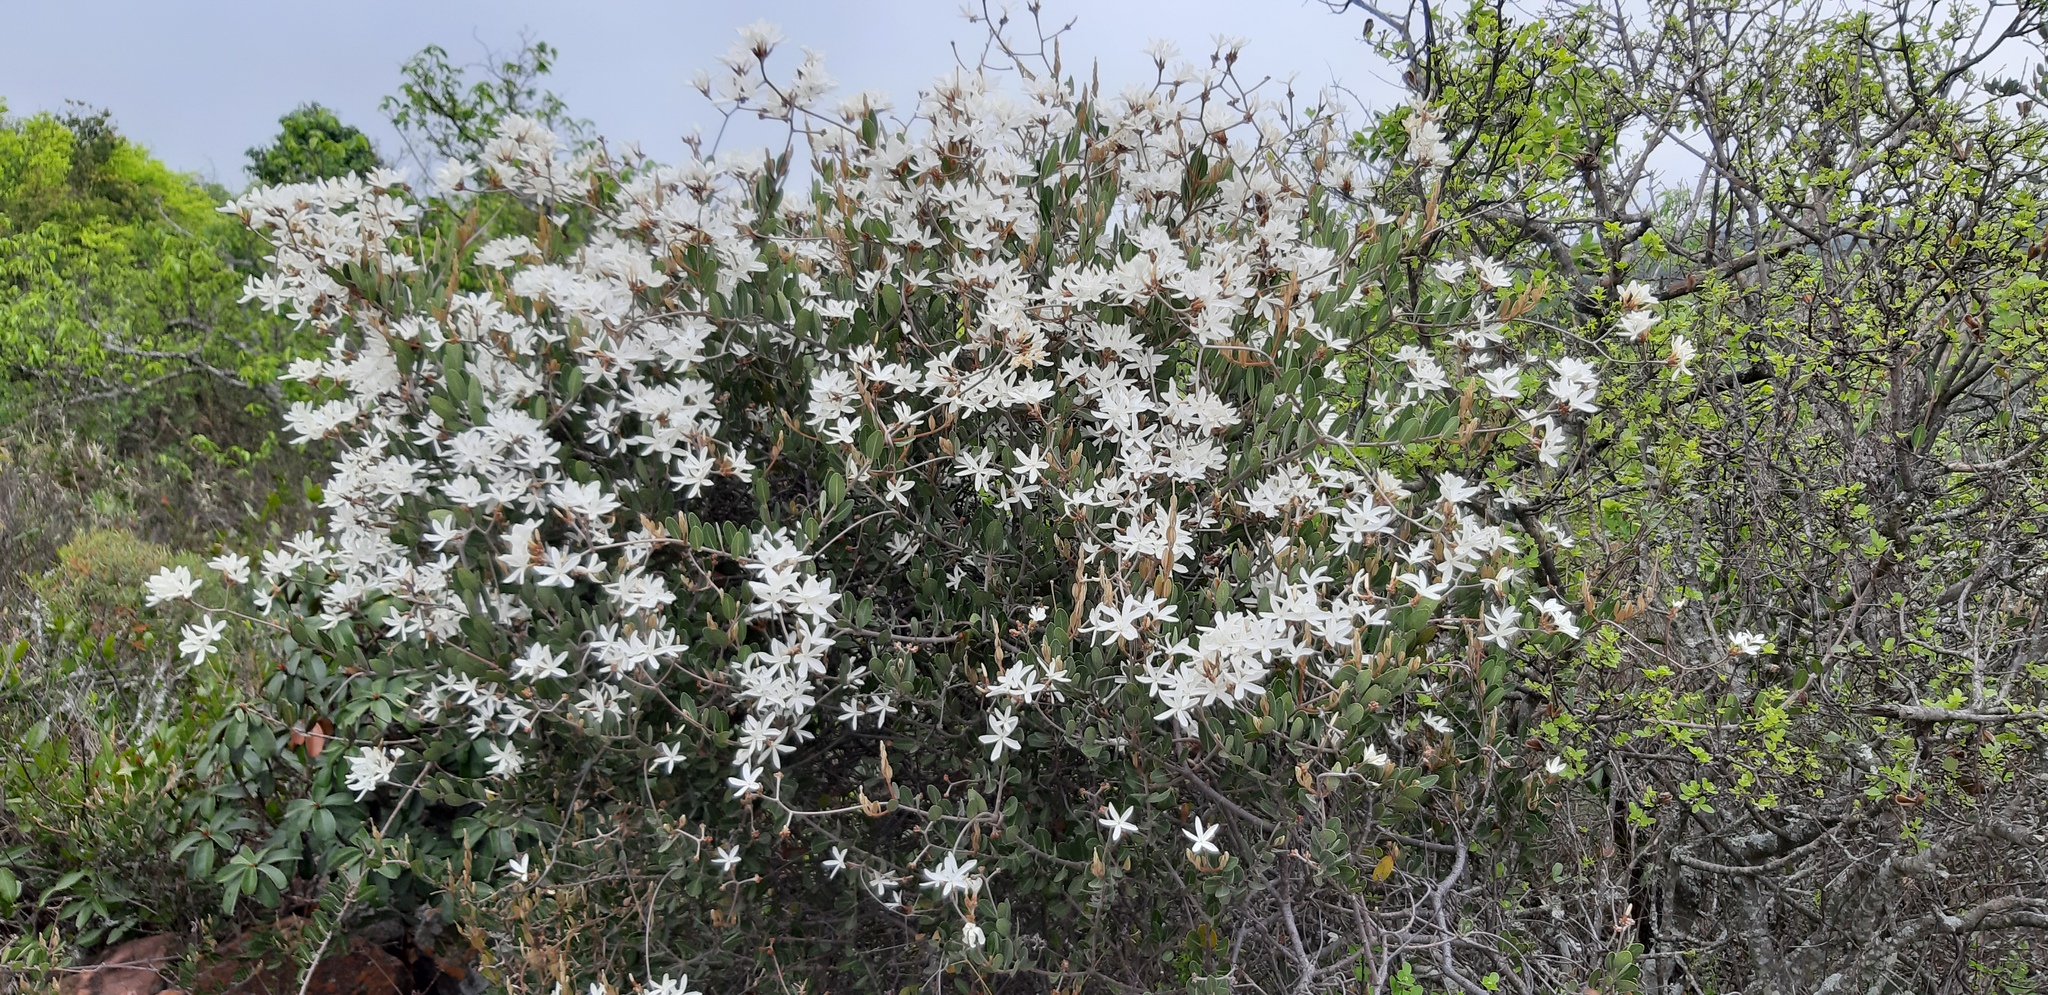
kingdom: Plantae
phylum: Tracheophyta
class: Magnoliopsida
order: Gentianales
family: Apocynaceae
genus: Ancylobothrys
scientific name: Ancylobothrys capensis
